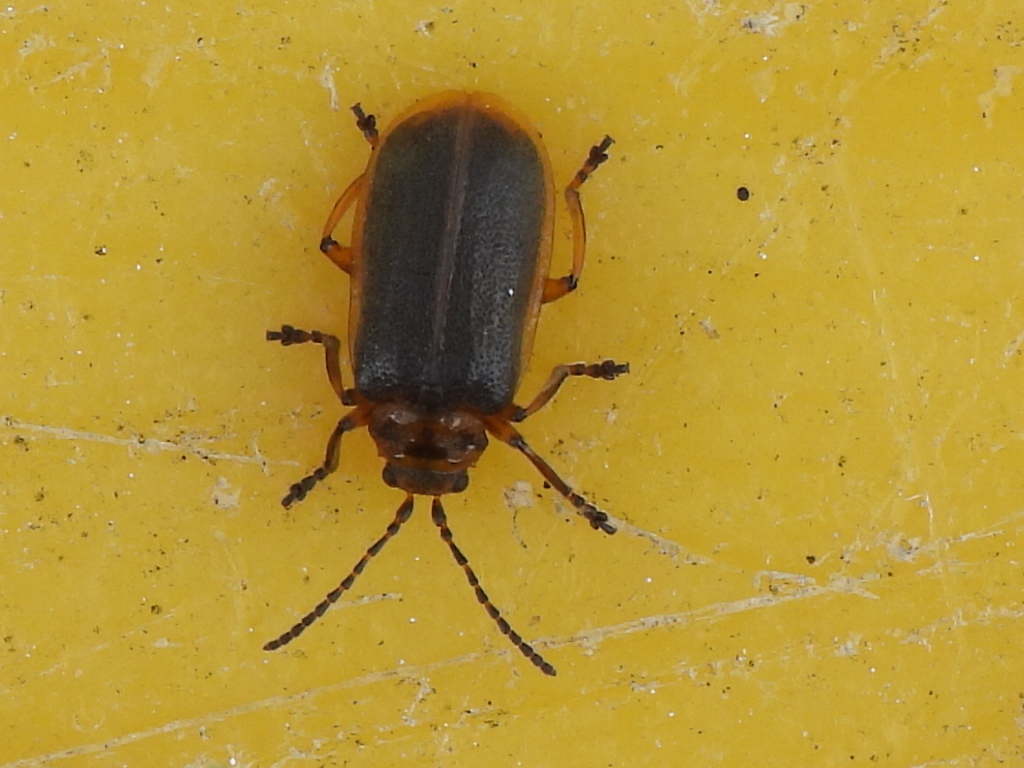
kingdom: Animalia
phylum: Arthropoda
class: Insecta
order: Coleoptera
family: Chrysomelidae
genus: Galerucella
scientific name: Galerucella nymphaeae
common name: Leaf beetle
